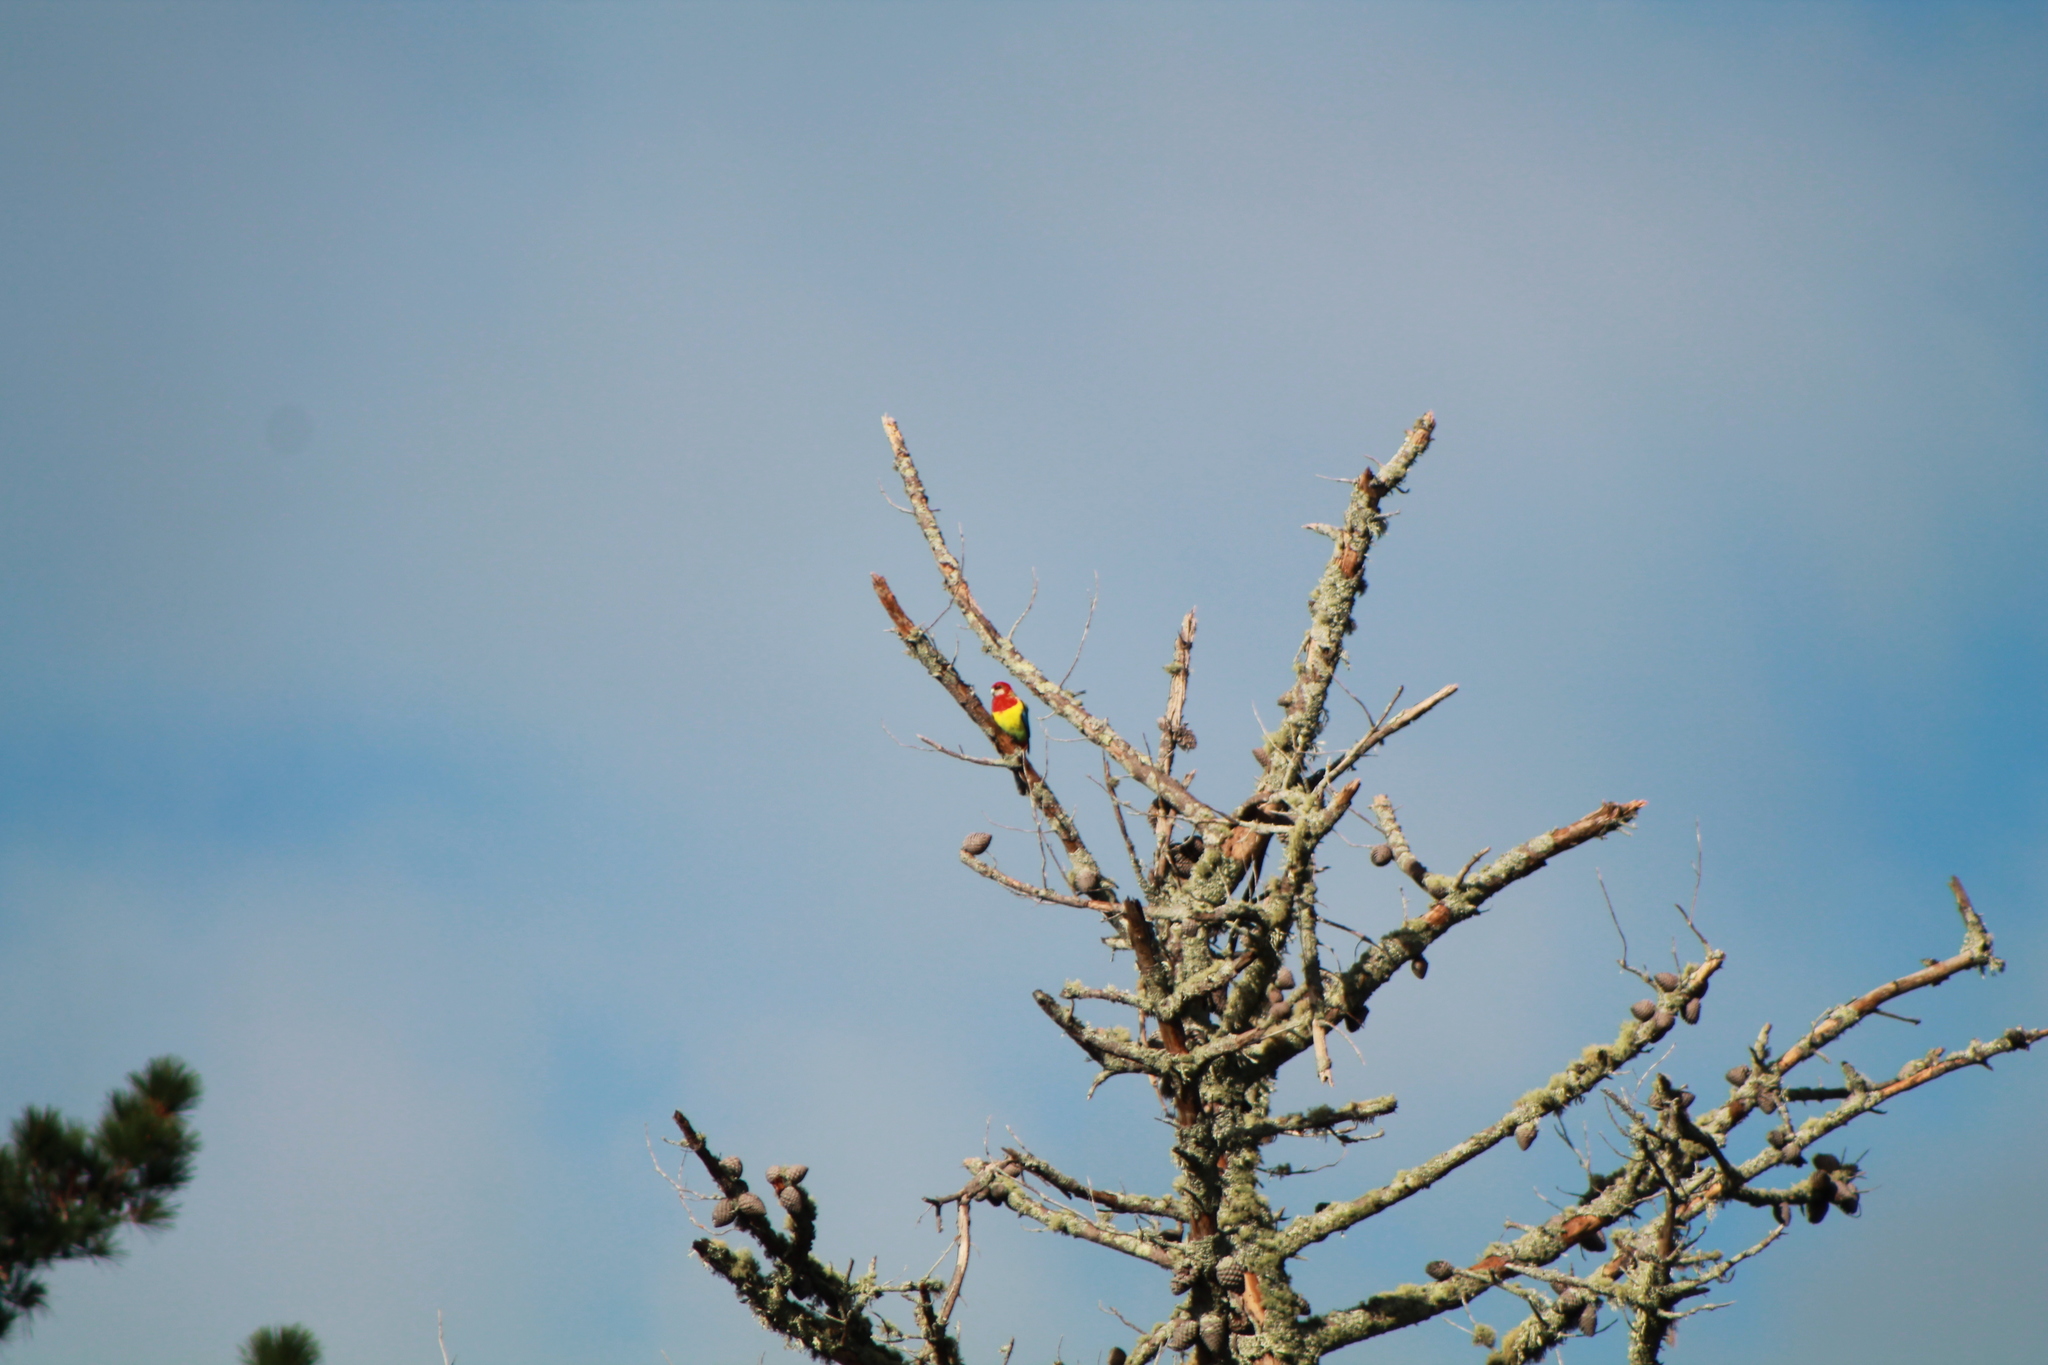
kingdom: Animalia
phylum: Chordata
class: Aves
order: Psittaciformes
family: Psittacidae
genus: Platycercus
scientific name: Platycercus eximius
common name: Eastern rosella
